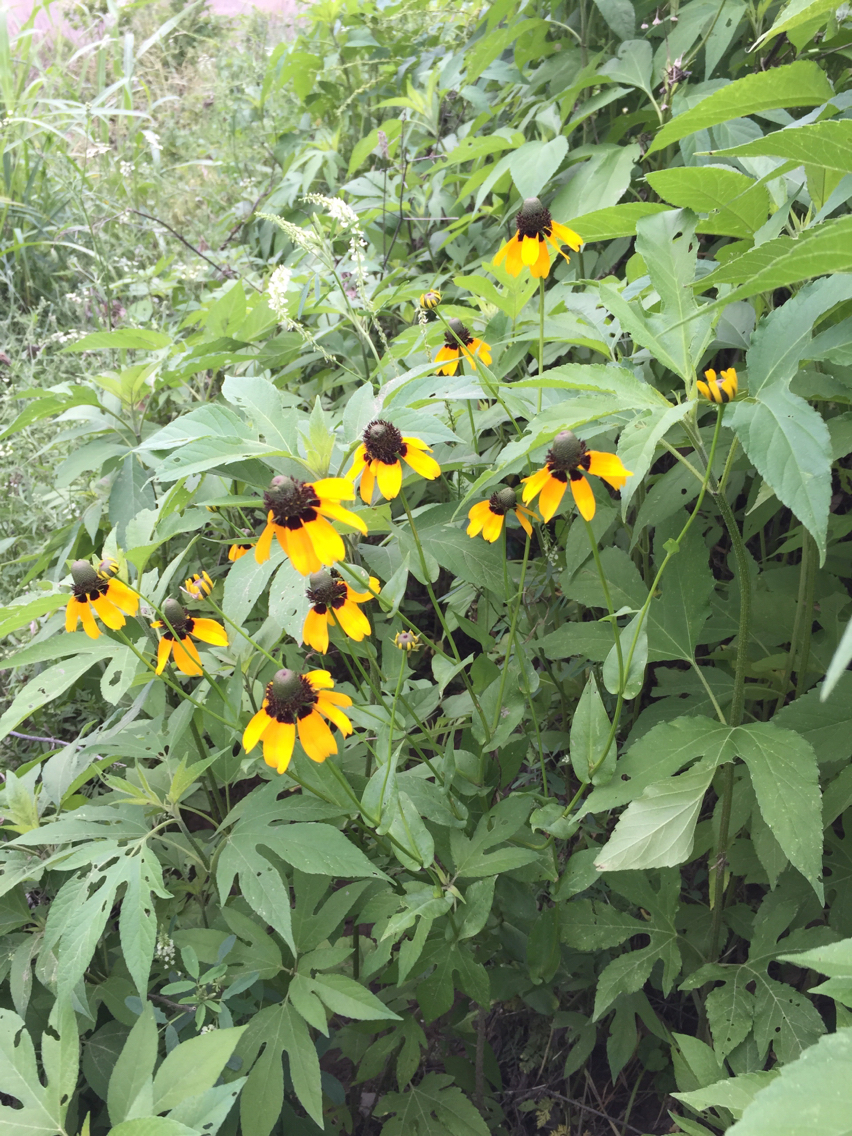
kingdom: Plantae
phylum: Tracheophyta
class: Magnoliopsida
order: Asterales
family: Asteraceae
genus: Rudbeckia
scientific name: Rudbeckia amplexicaulis
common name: Clasping-leaf coneflower
